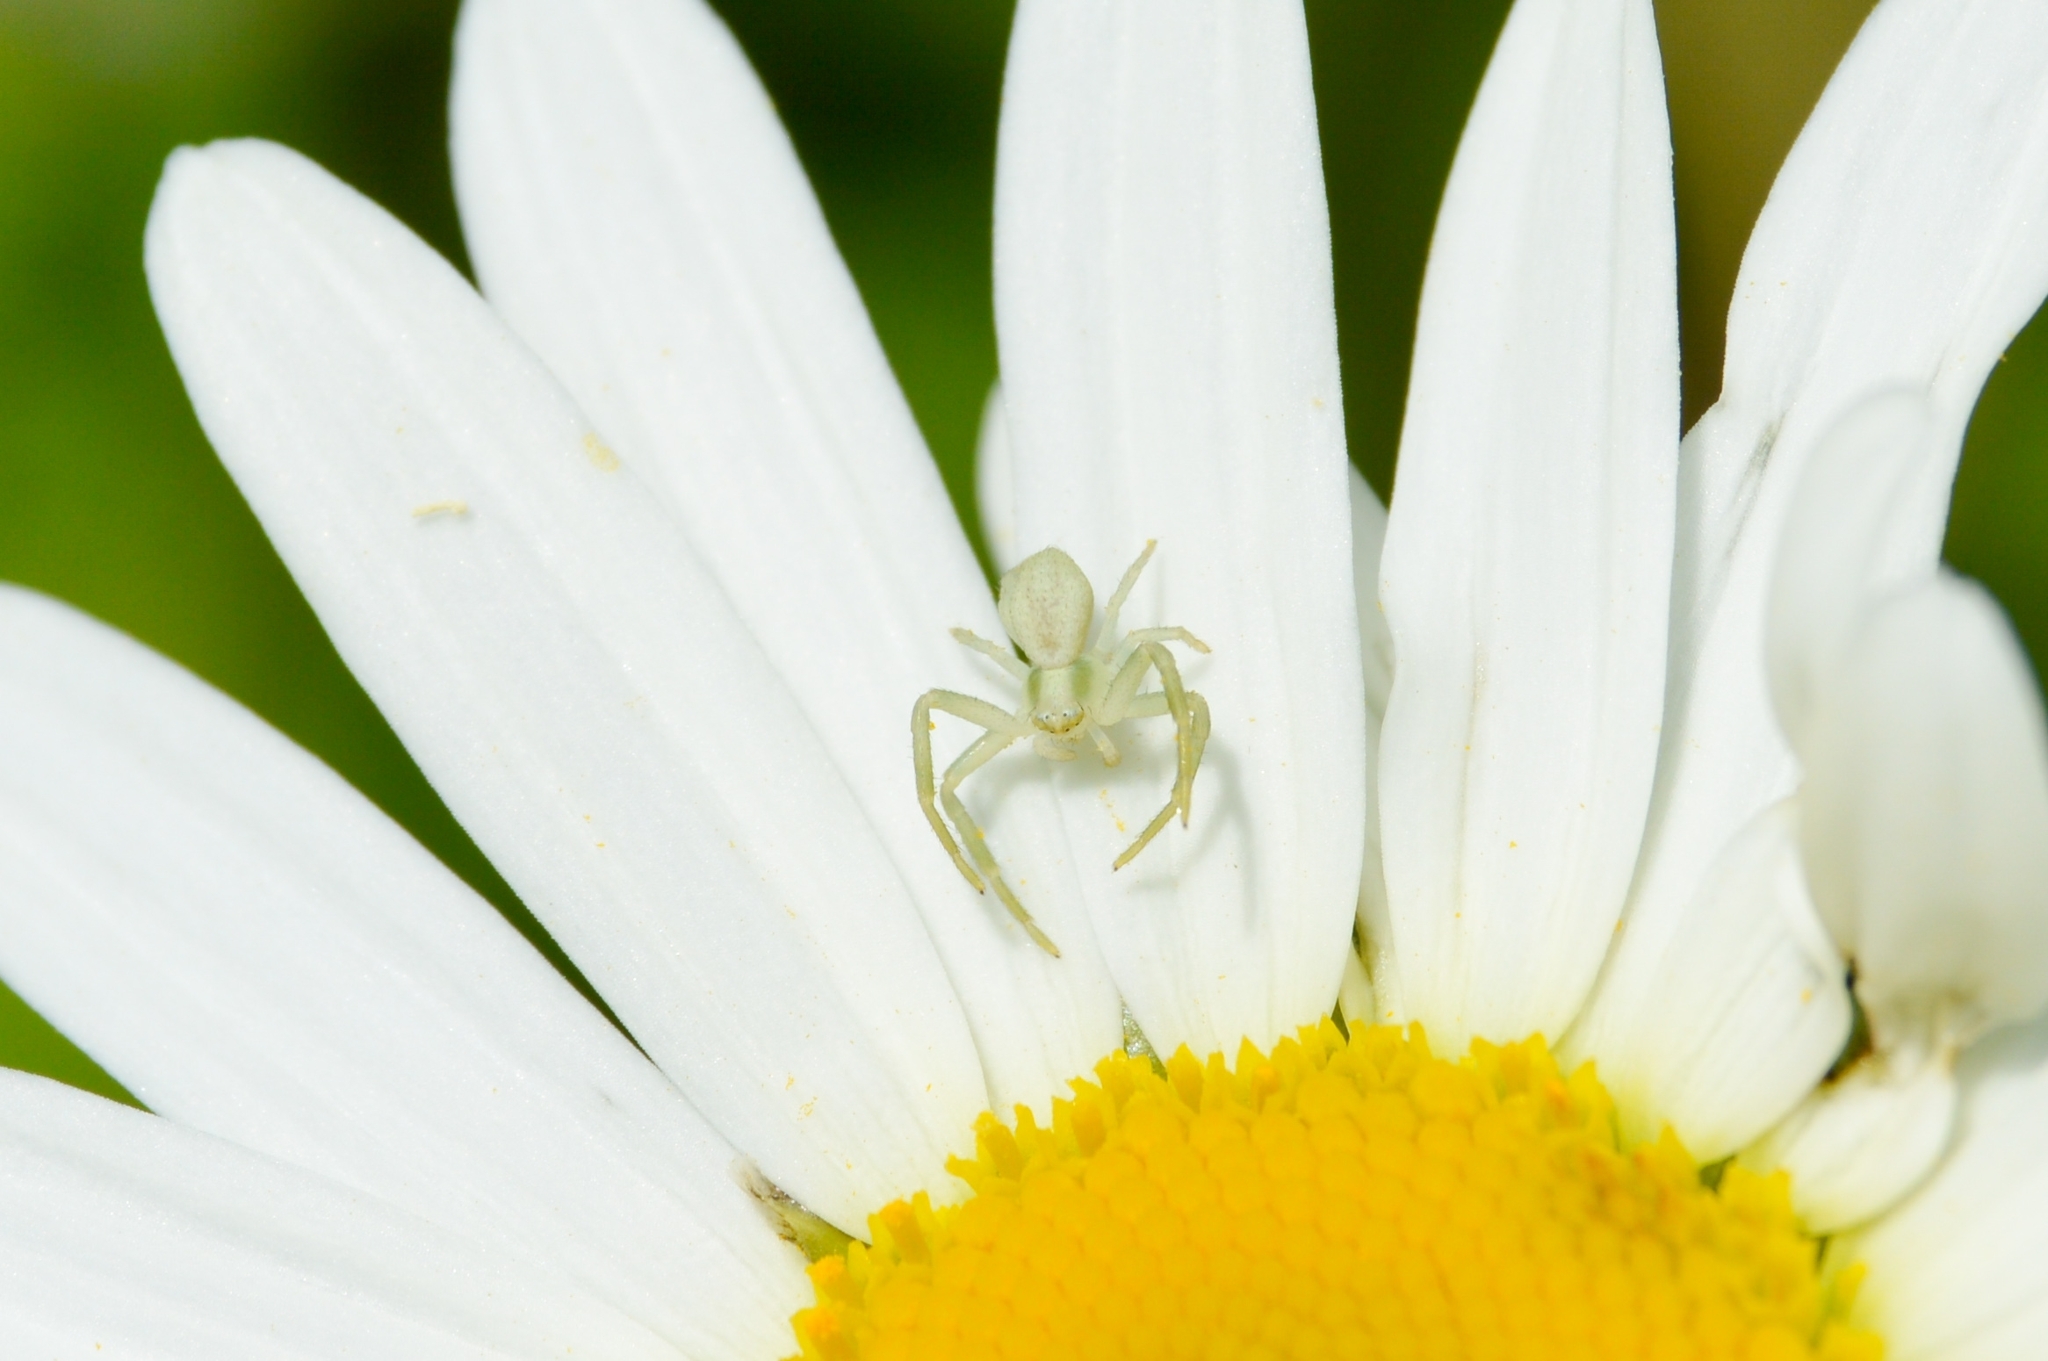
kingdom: Animalia
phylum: Arthropoda
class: Arachnida
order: Araneae
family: Thomisidae
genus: Misumena
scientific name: Misumena vatia
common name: Goldenrod crab spider
